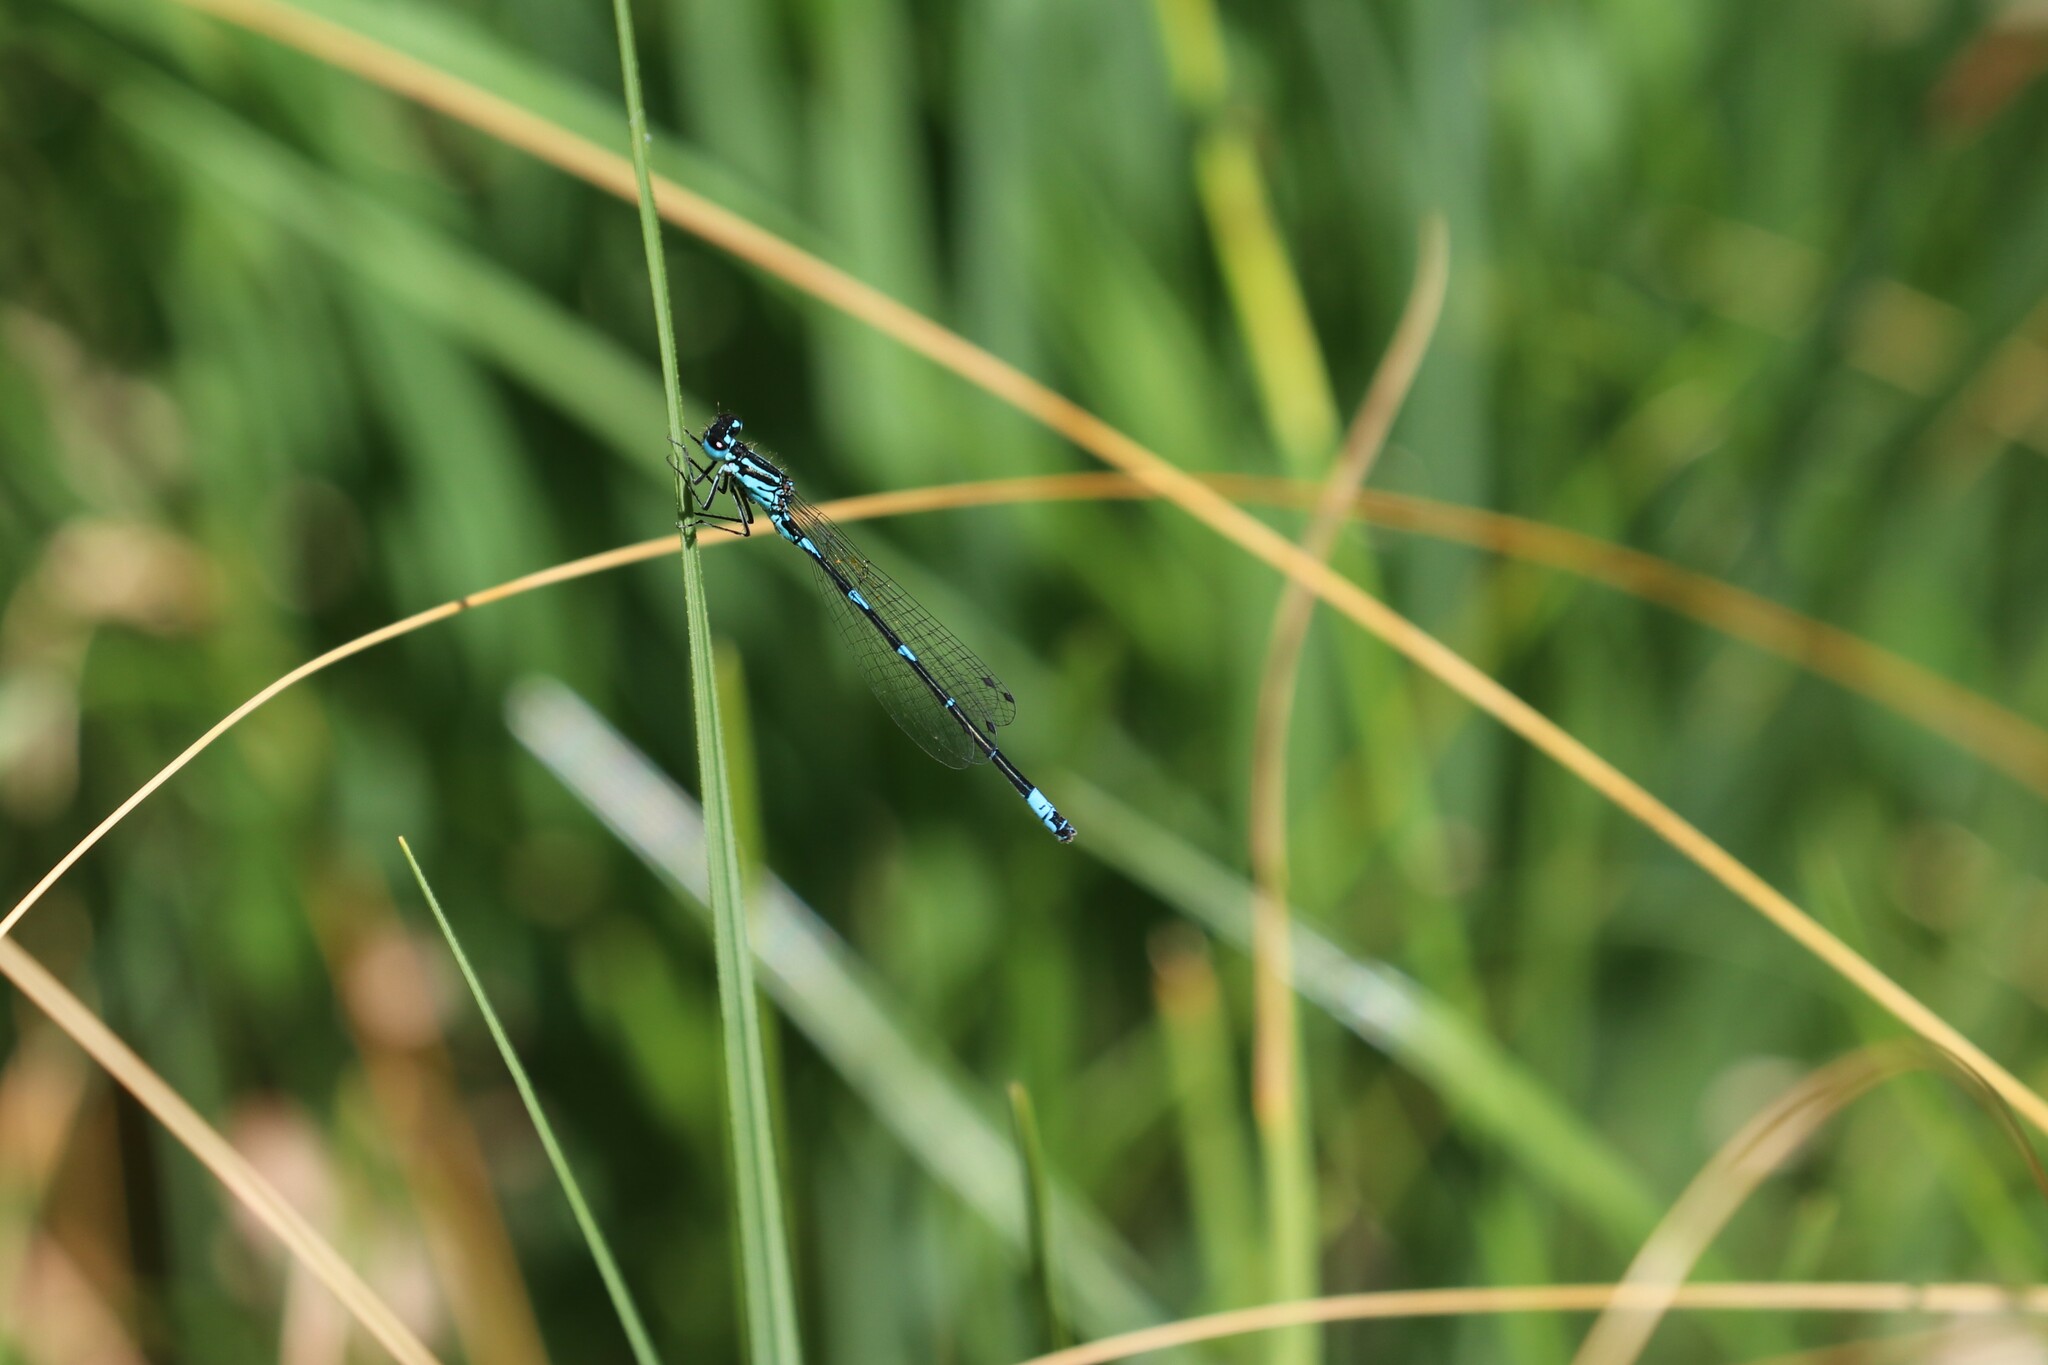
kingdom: Animalia
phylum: Arthropoda
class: Insecta
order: Odonata
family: Coenagrionidae
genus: Coenagrion
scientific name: Coenagrion pulchellum
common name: Variable bluet
